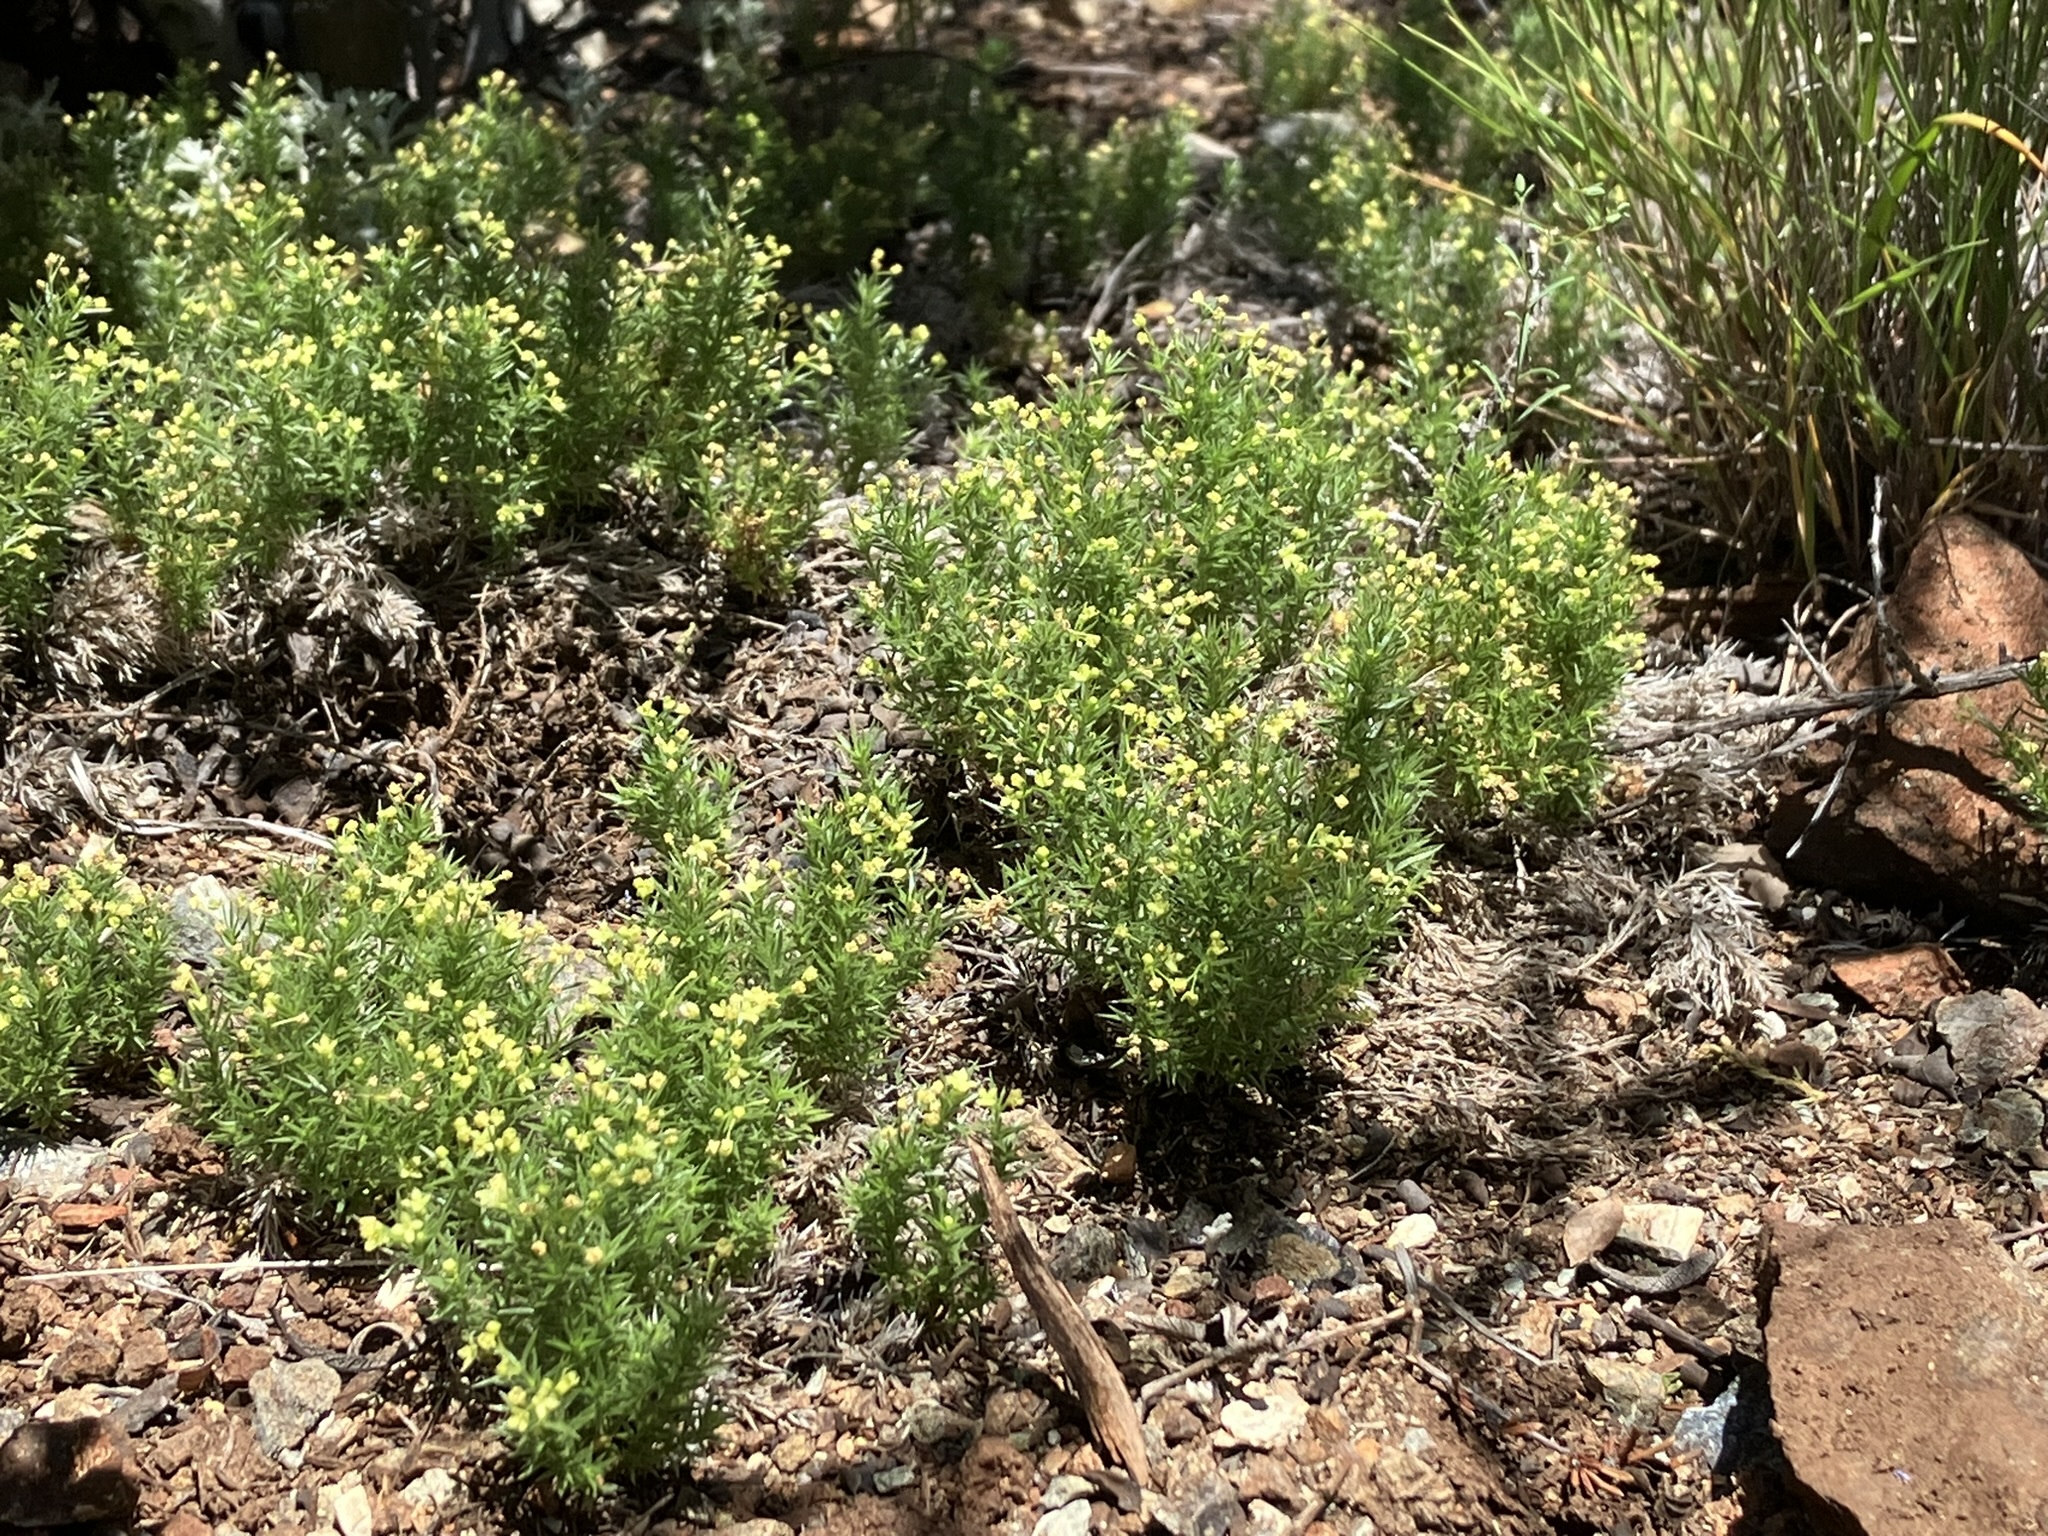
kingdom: Plantae
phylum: Tracheophyta
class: Magnoliopsida
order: Gentianales
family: Rubiaceae
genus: Galium
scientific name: Galium andrewsii
